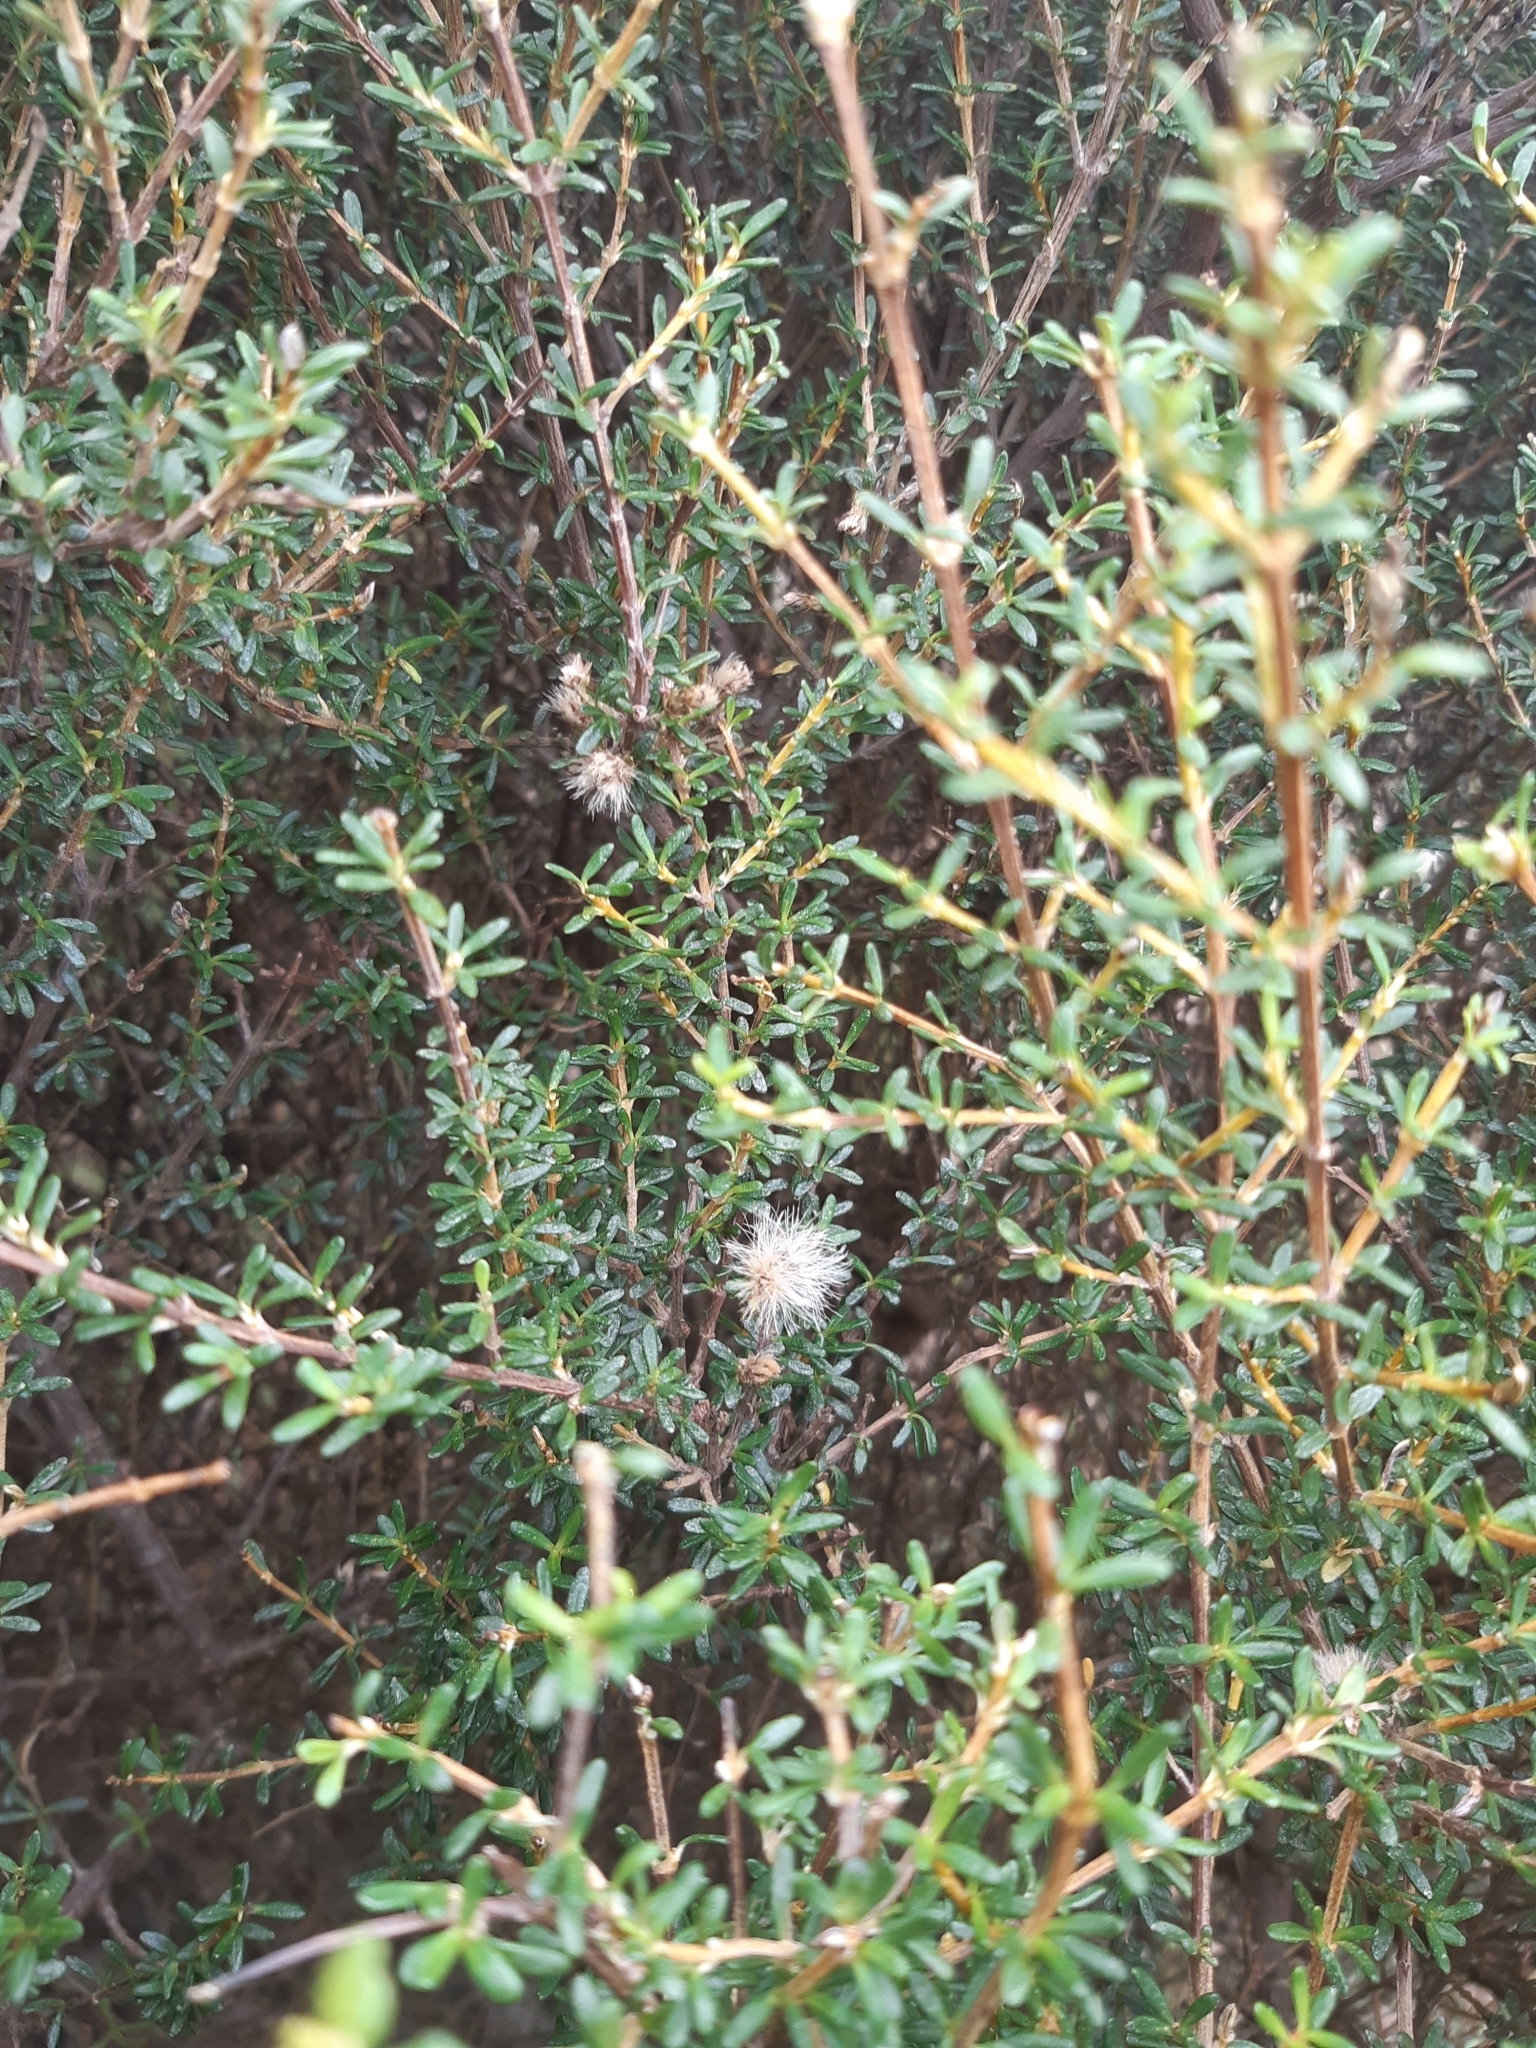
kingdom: Plantae
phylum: Tracheophyta
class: Magnoliopsida
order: Asterales
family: Asteraceae
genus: Olearia
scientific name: Olearia solandri
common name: Coastal daisybush
